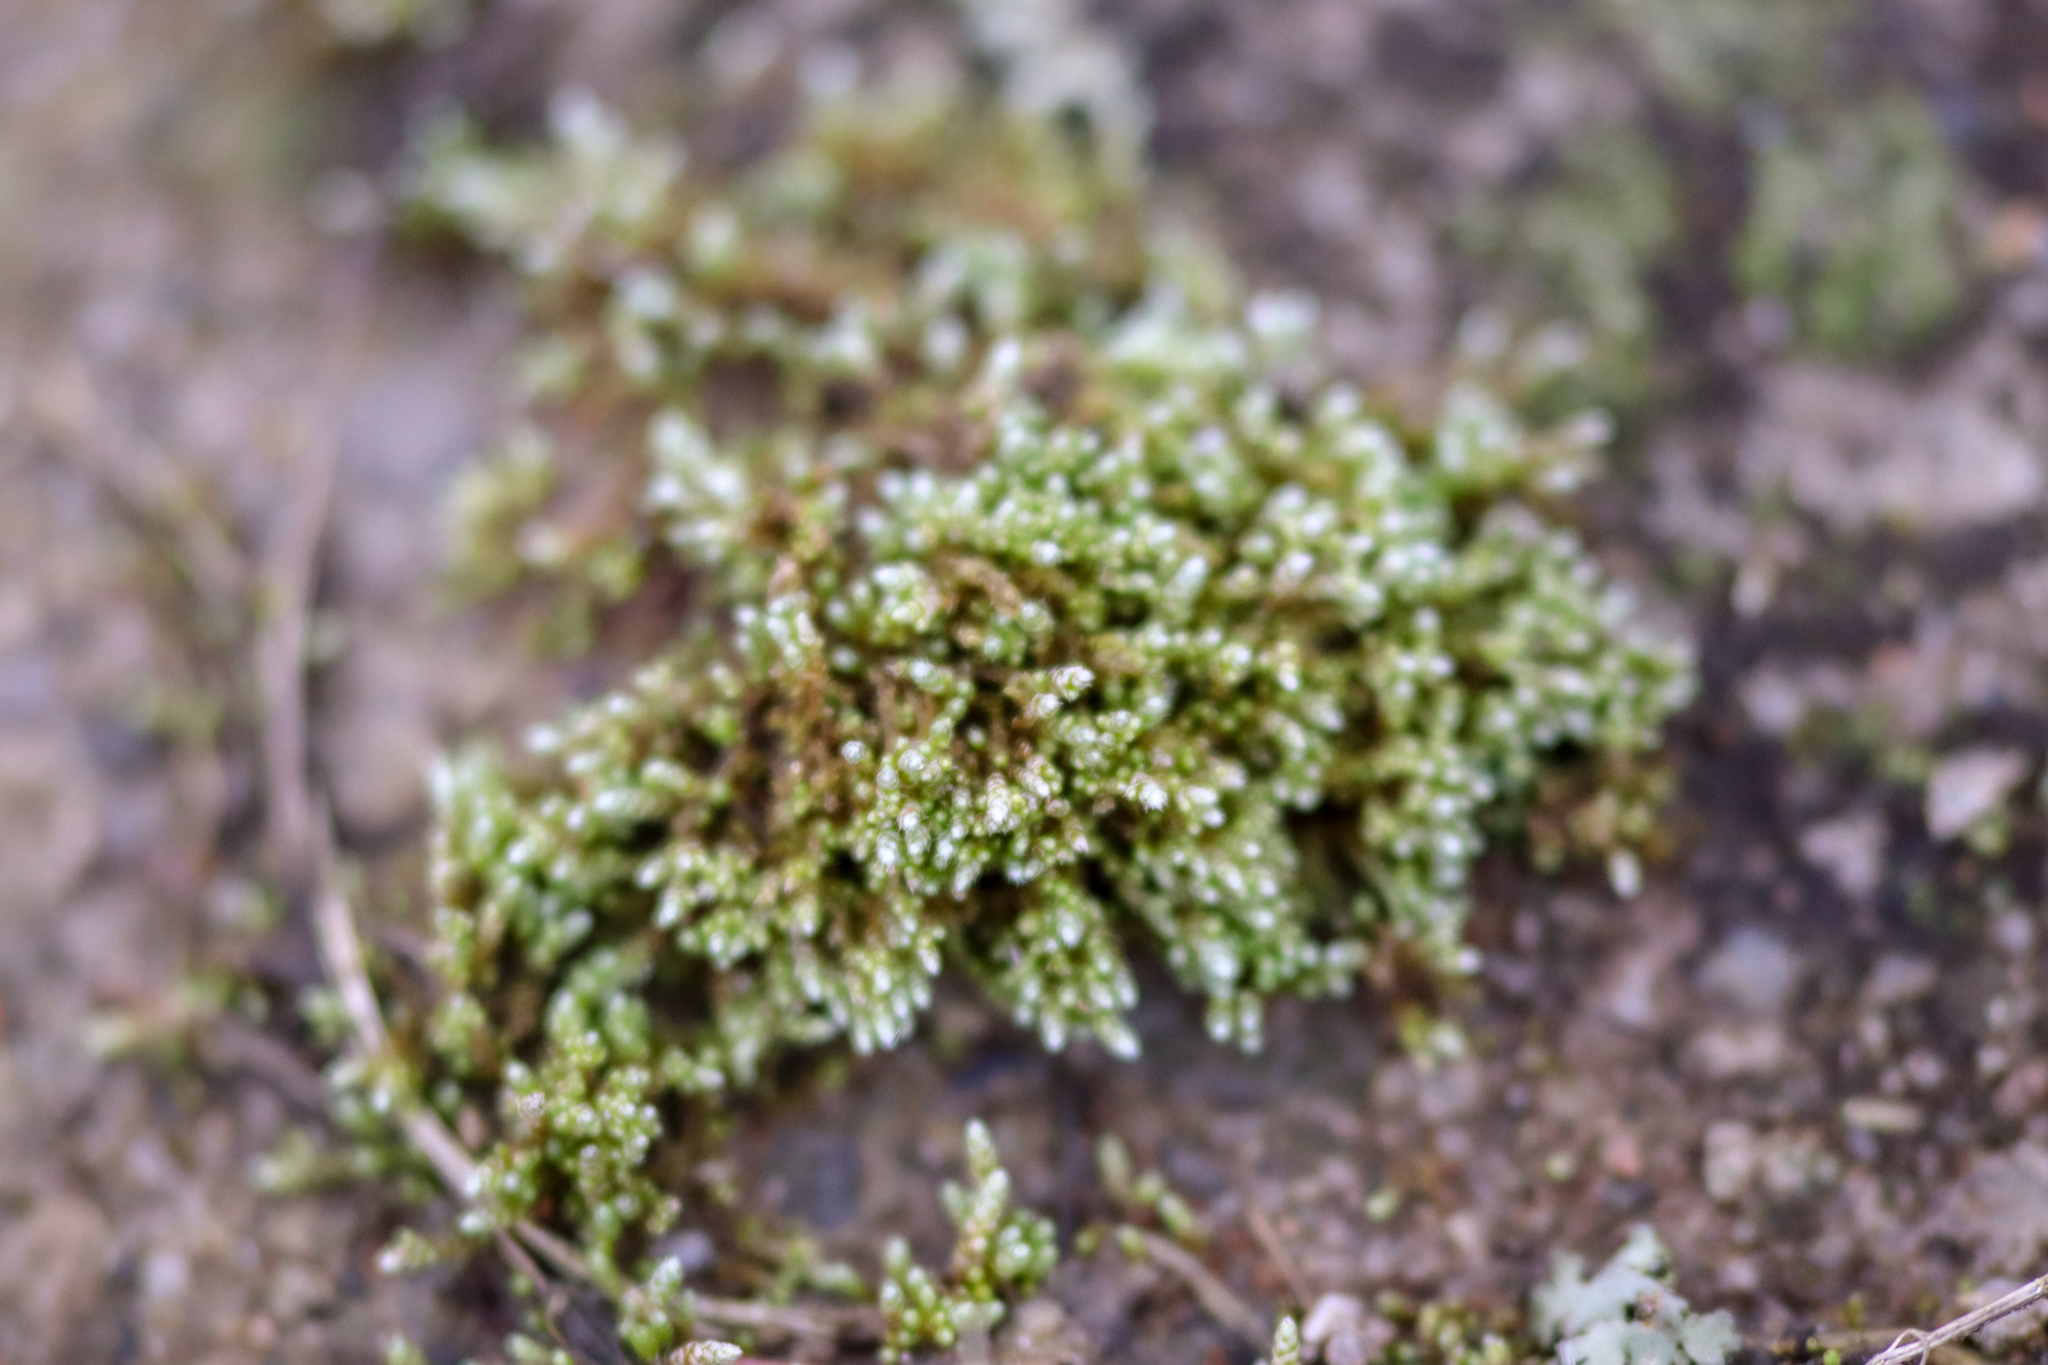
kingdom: Plantae
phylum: Bryophyta
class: Bryopsida
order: Bryales
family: Bryaceae
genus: Bryum
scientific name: Bryum argenteum
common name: Silver-moss
